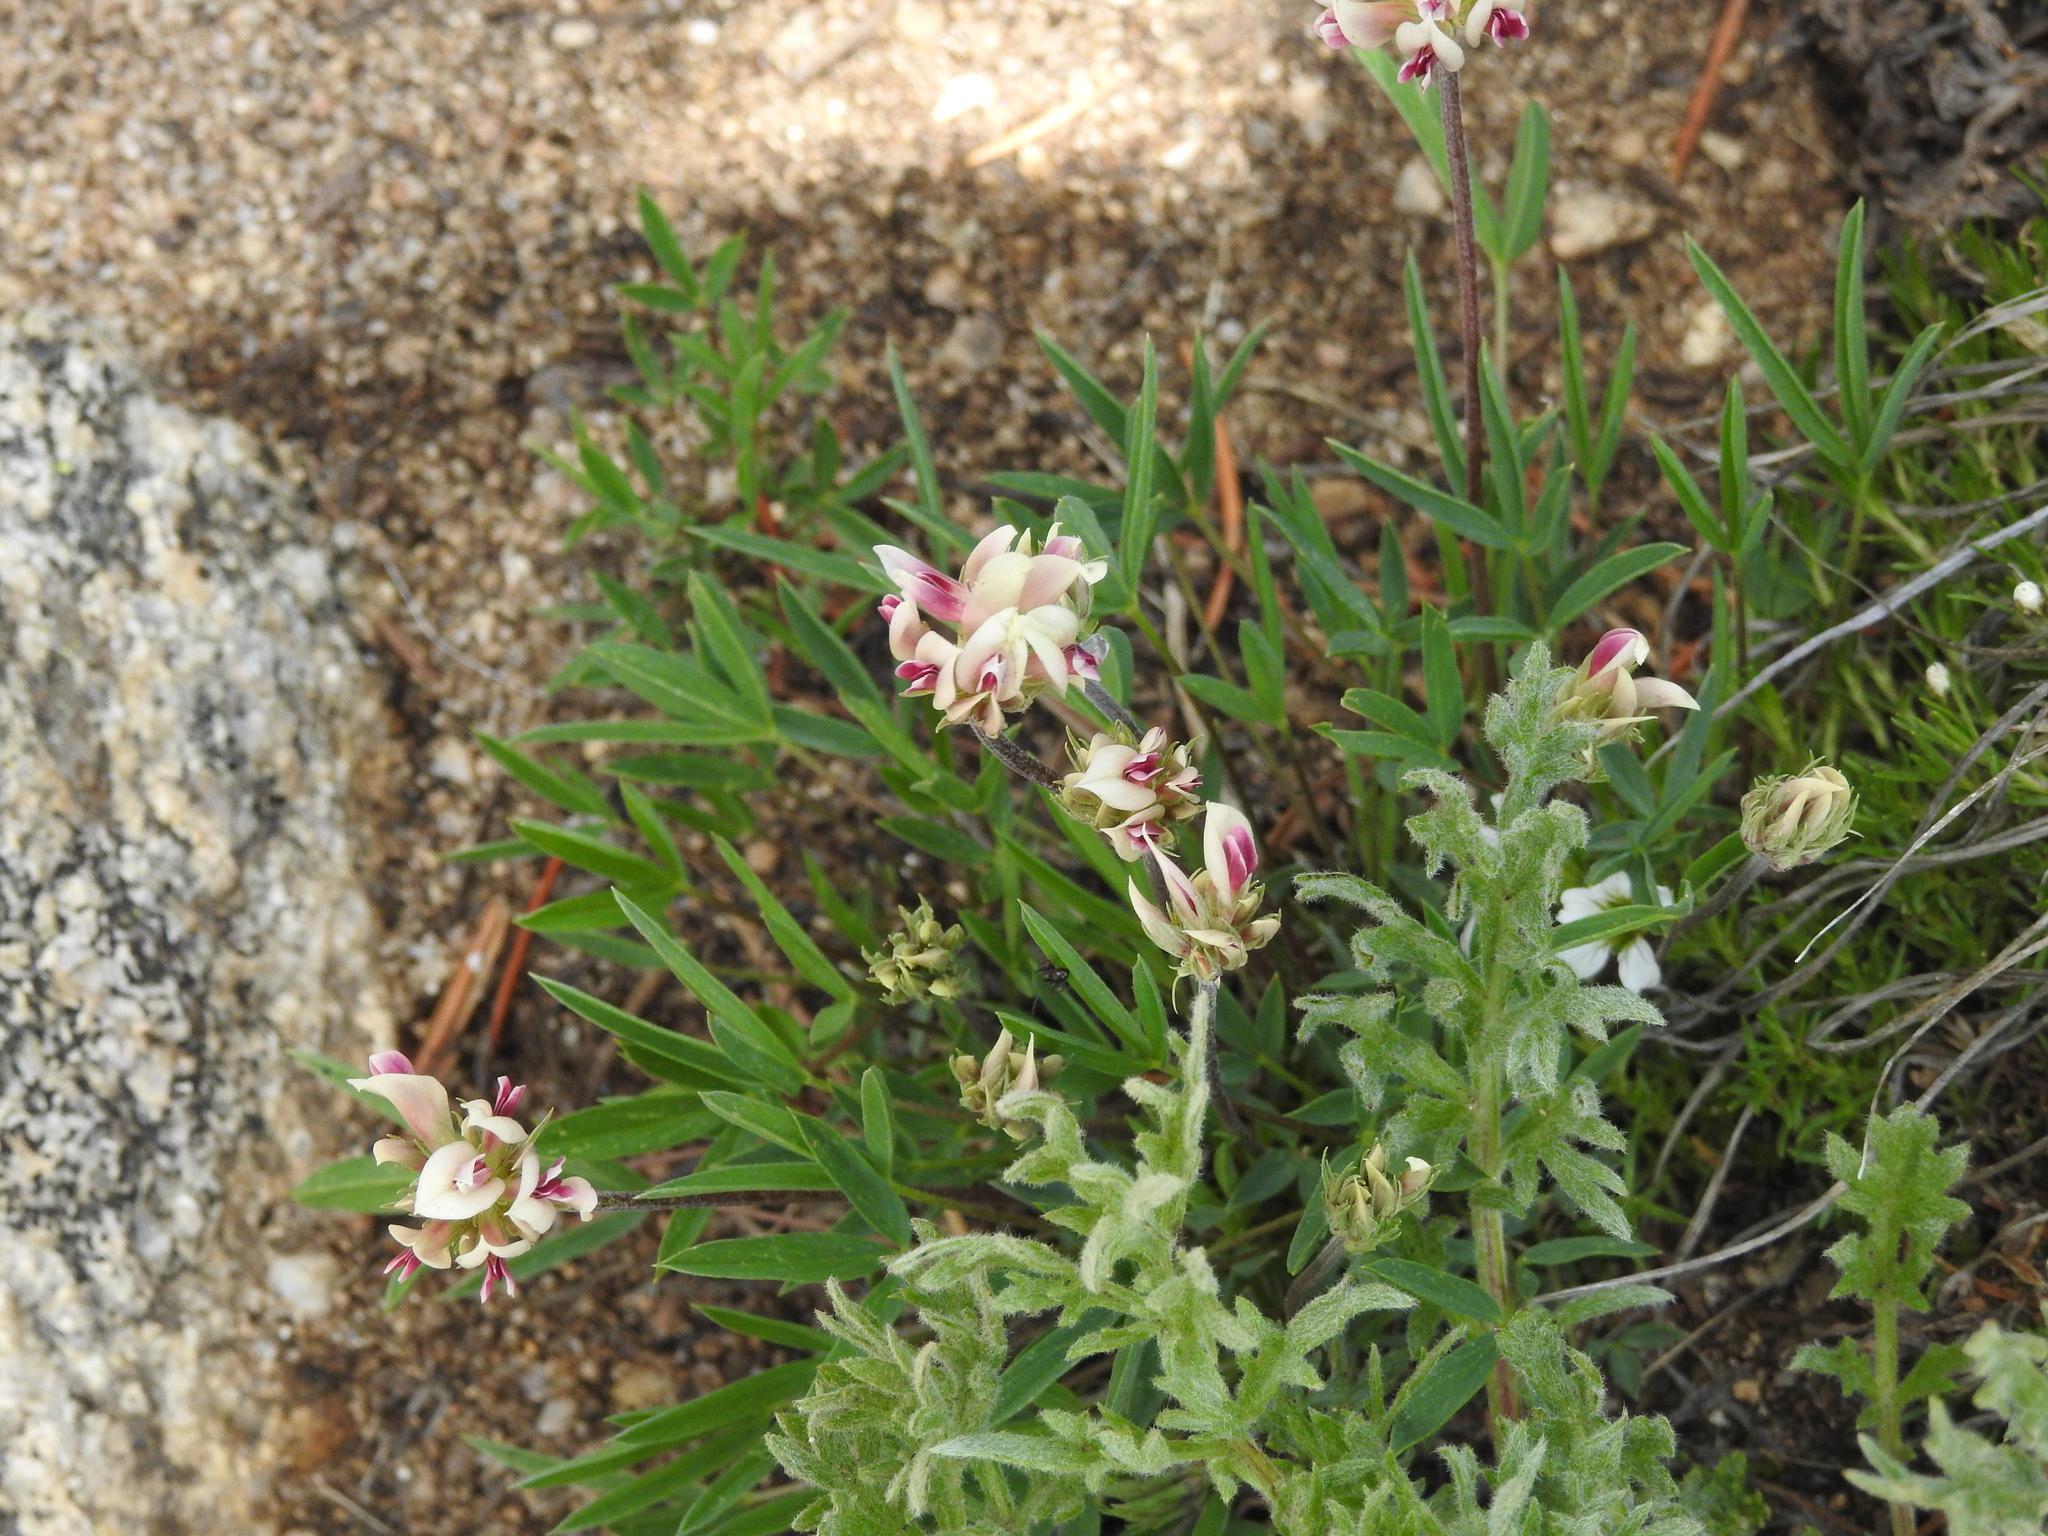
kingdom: Plantae
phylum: Tracheophyta
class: Magnoliopsida
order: Fabales
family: Fabaceae
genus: Trifolium
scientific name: Trifolium dasyphyllum
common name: Whip-root clover
